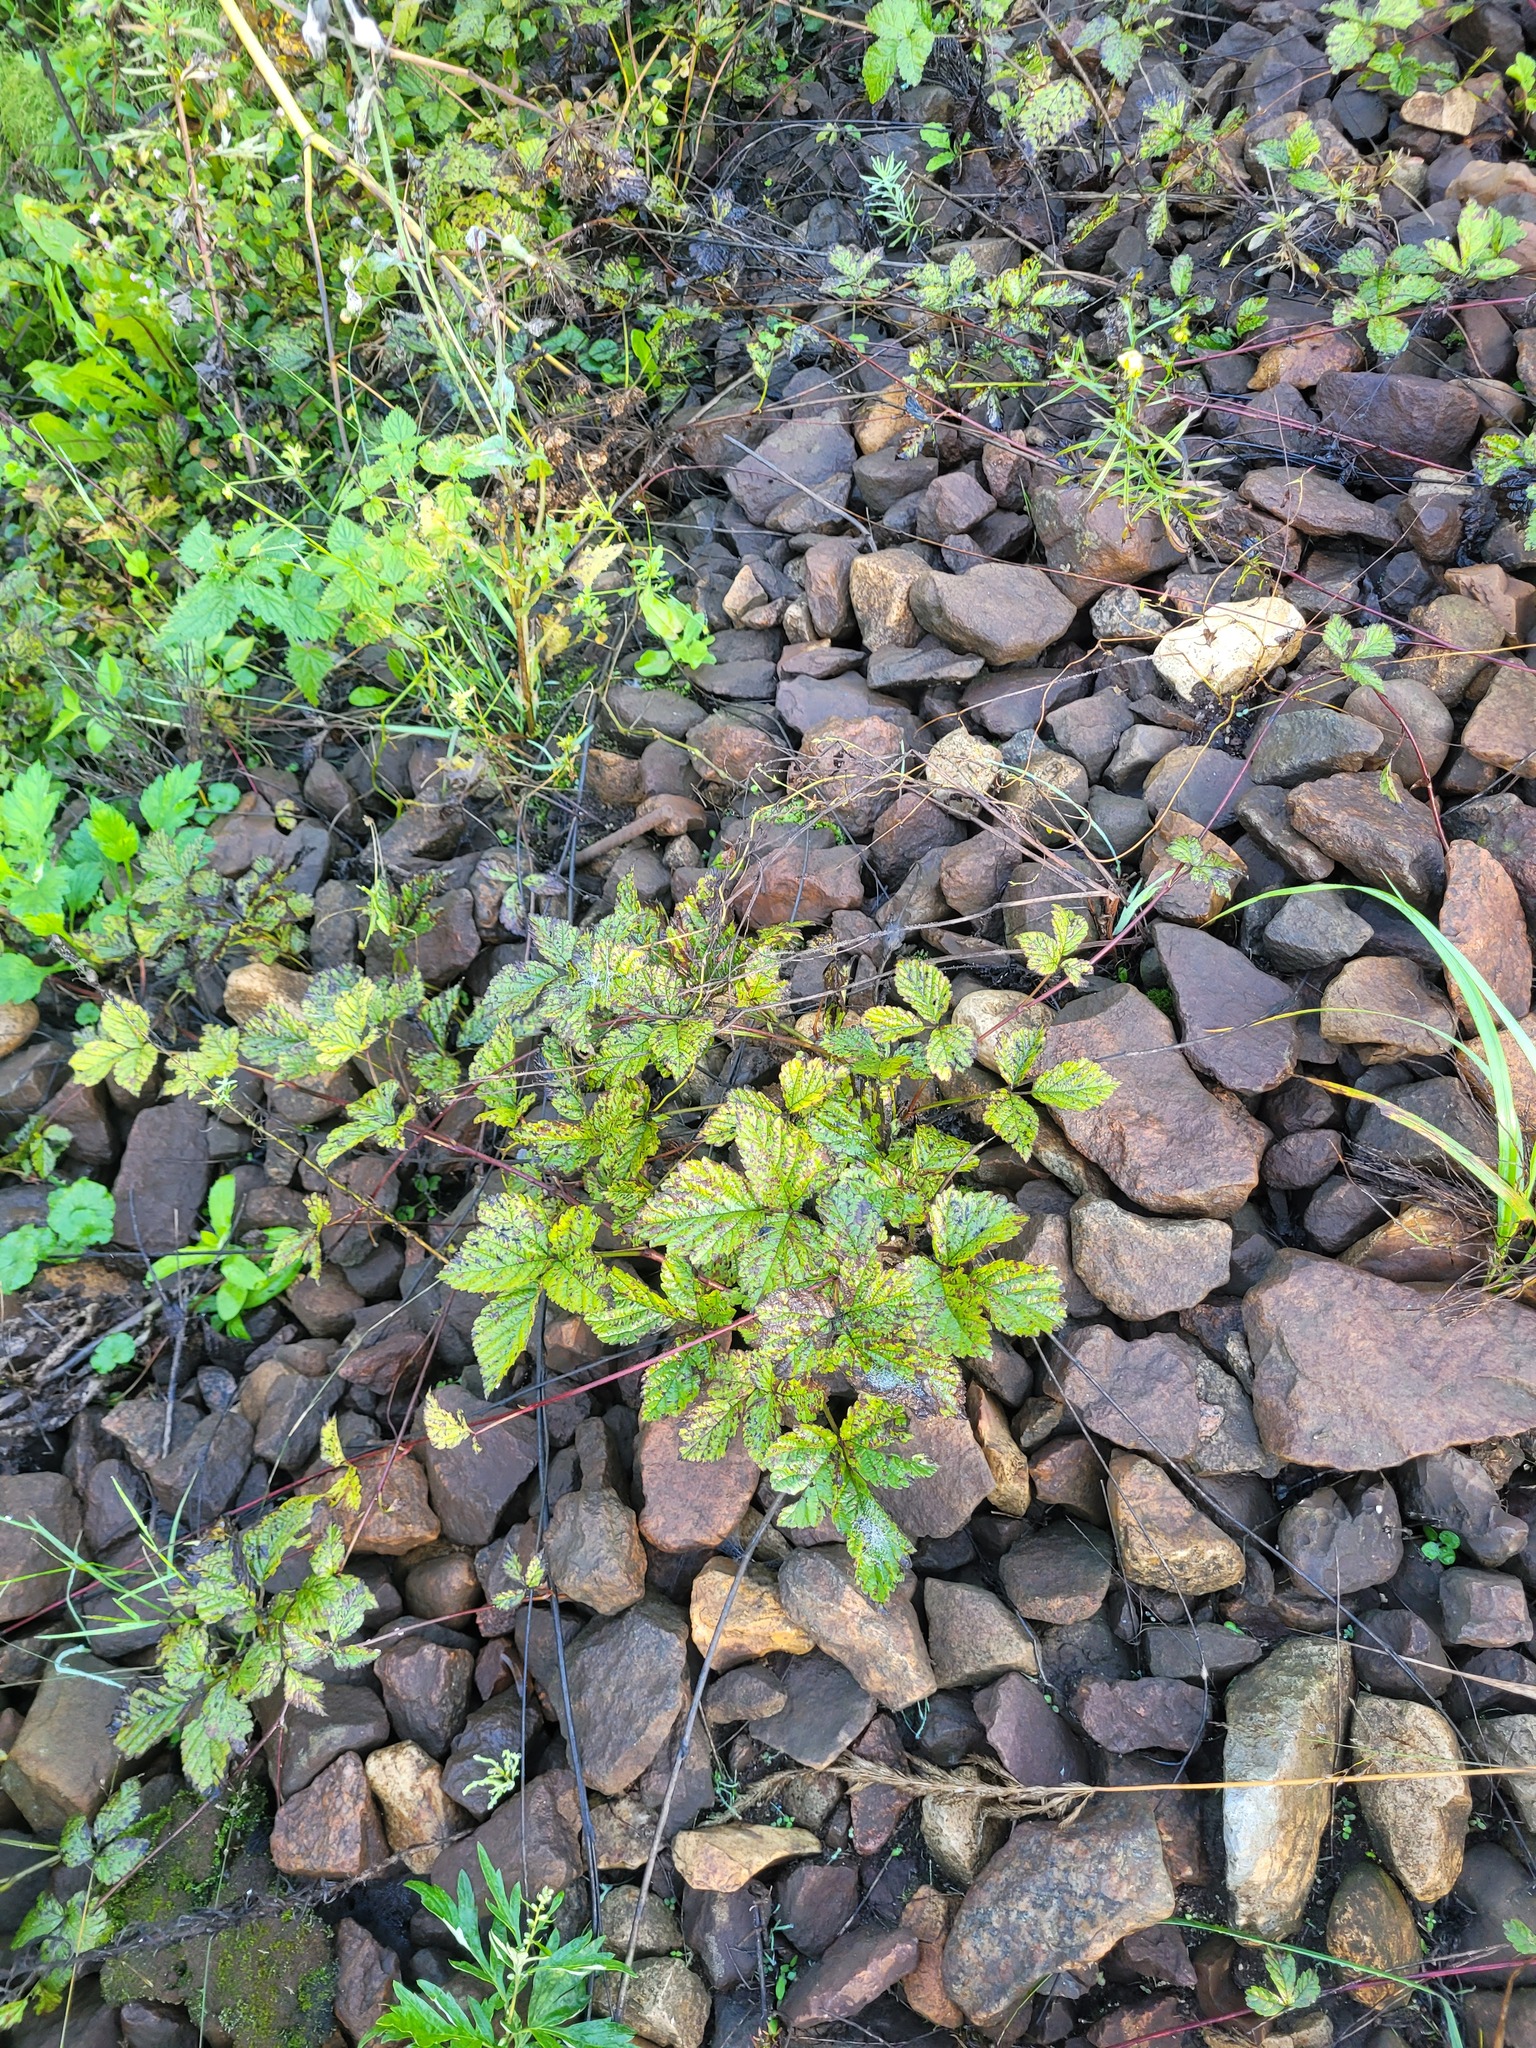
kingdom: Plantae
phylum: Tracheophyta
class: Magnoliopsida
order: Rosales
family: Rosaceae
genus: Rubus
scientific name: Rubus saxatilis
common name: Stone bramble
